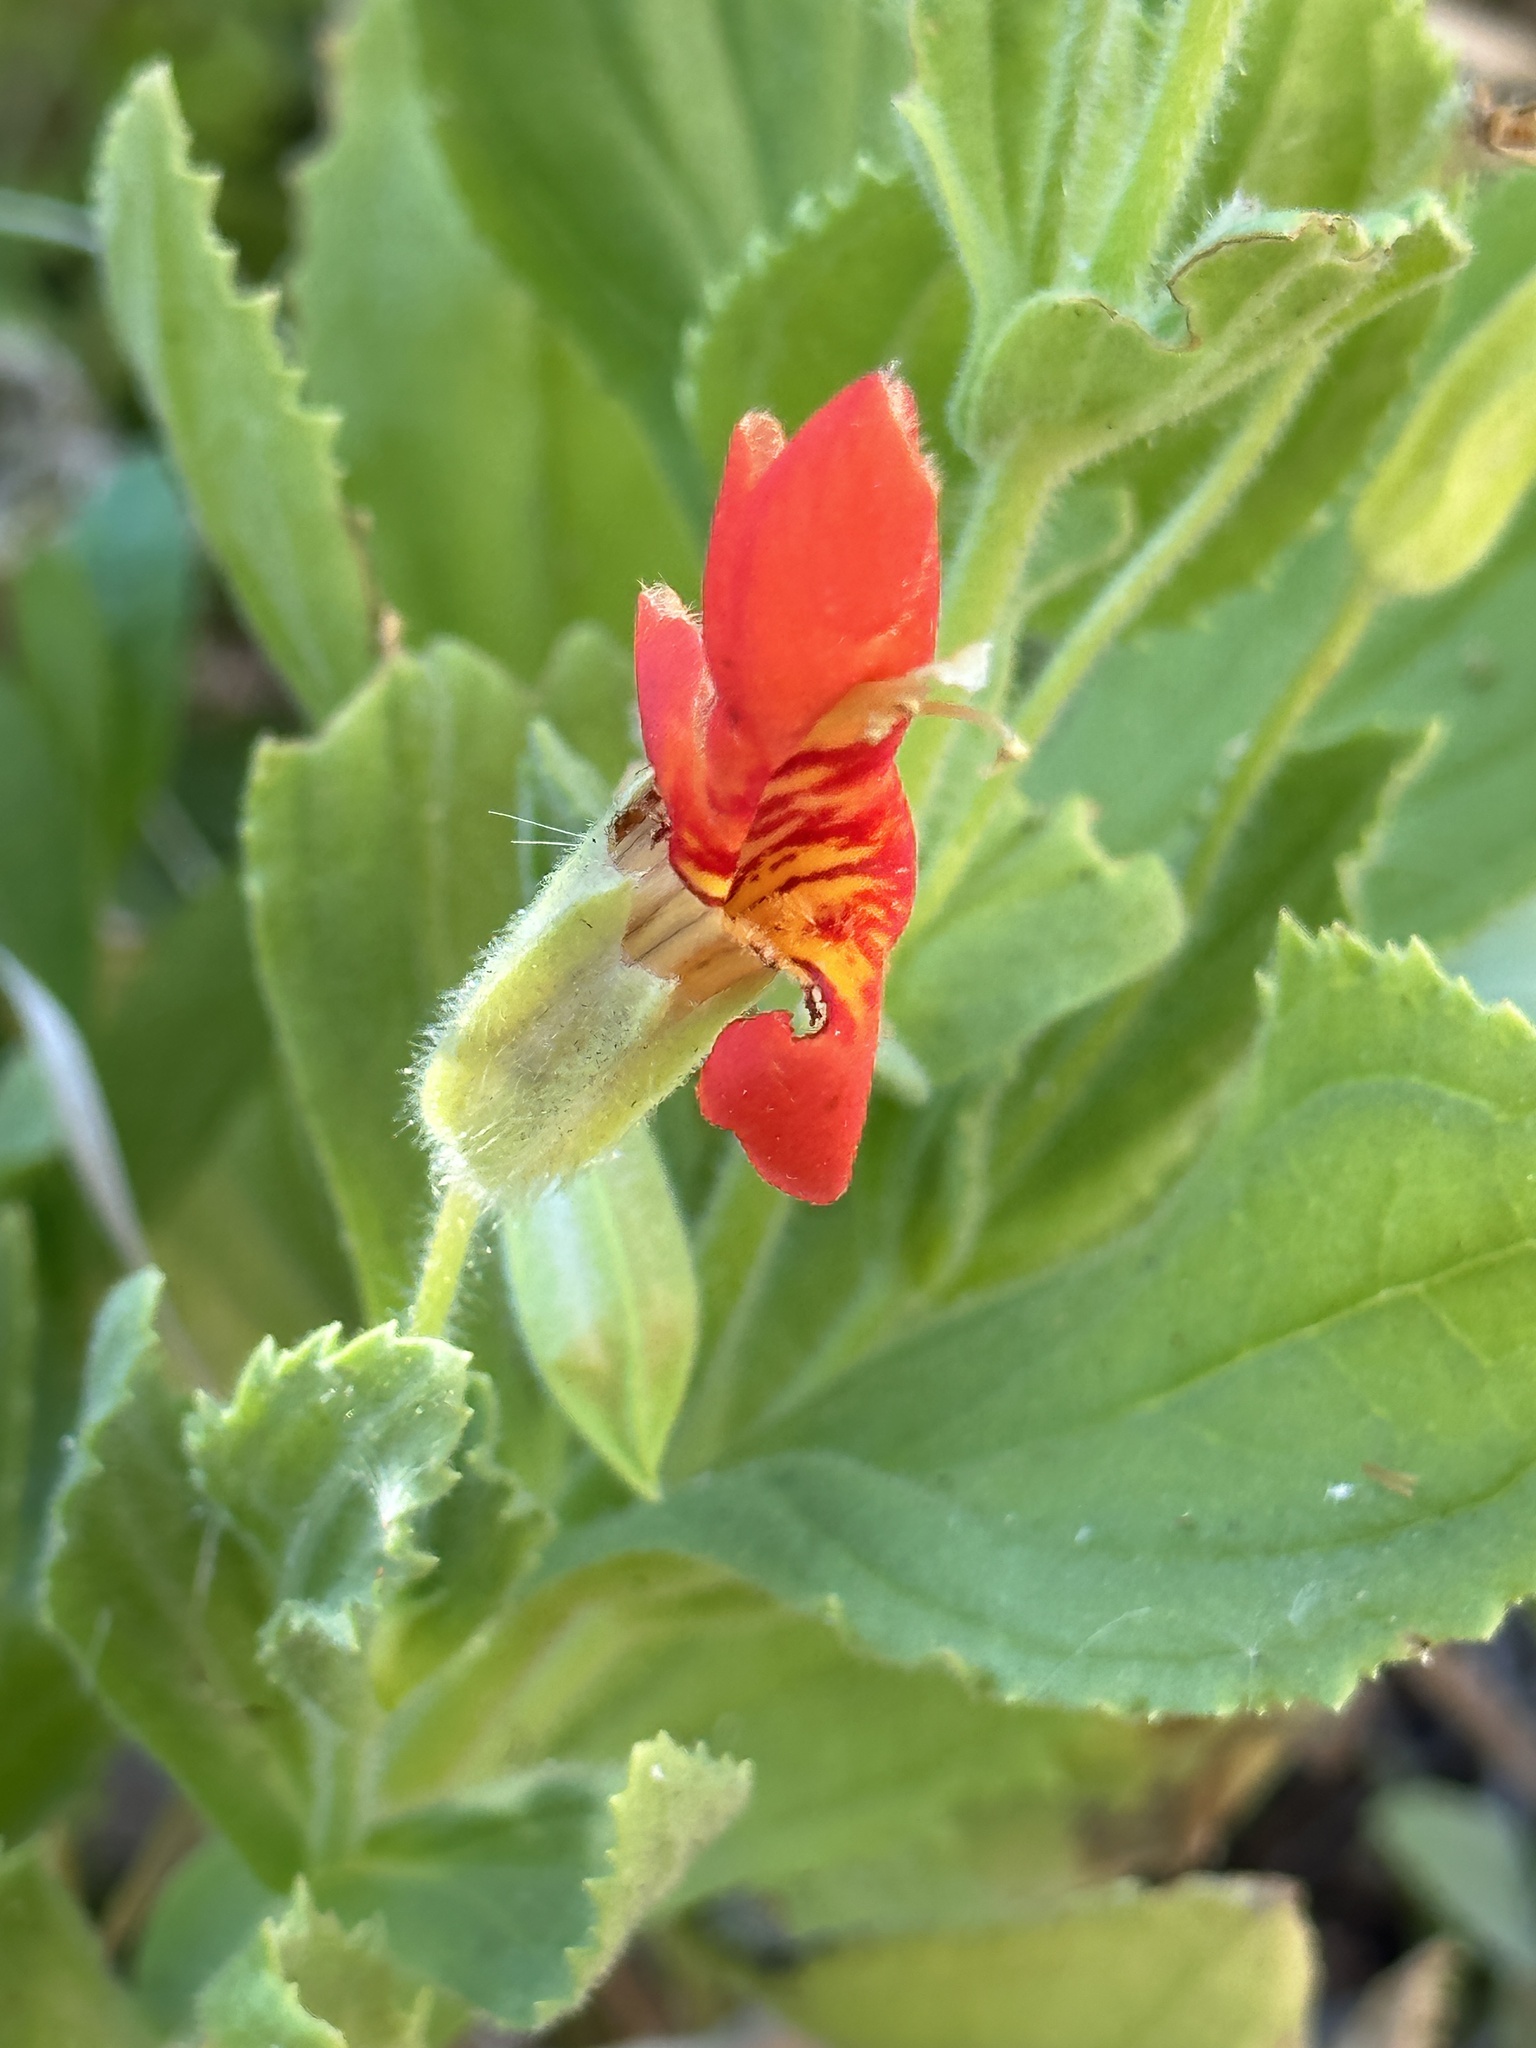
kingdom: Plantae
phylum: Tracheophyta
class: Magnoliopsida
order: Lamiales
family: Phrymaceae
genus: Erythranthe
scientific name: Erythranthe cardinalis
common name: Scarlet monkey-flower
